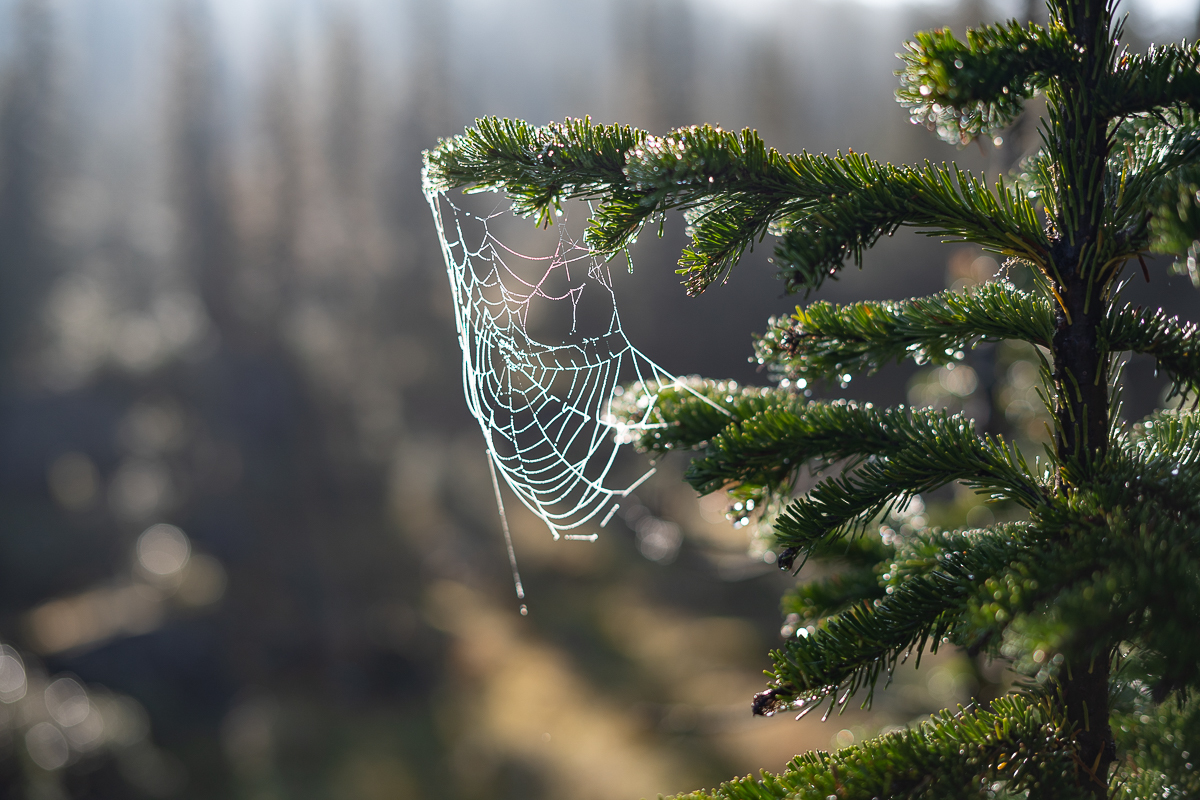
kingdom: Plantae
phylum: Tracheophyta
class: Pinopsida
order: Pinales
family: Pinaceae
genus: Picea
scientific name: Picea obovata
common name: Siberian spruce
